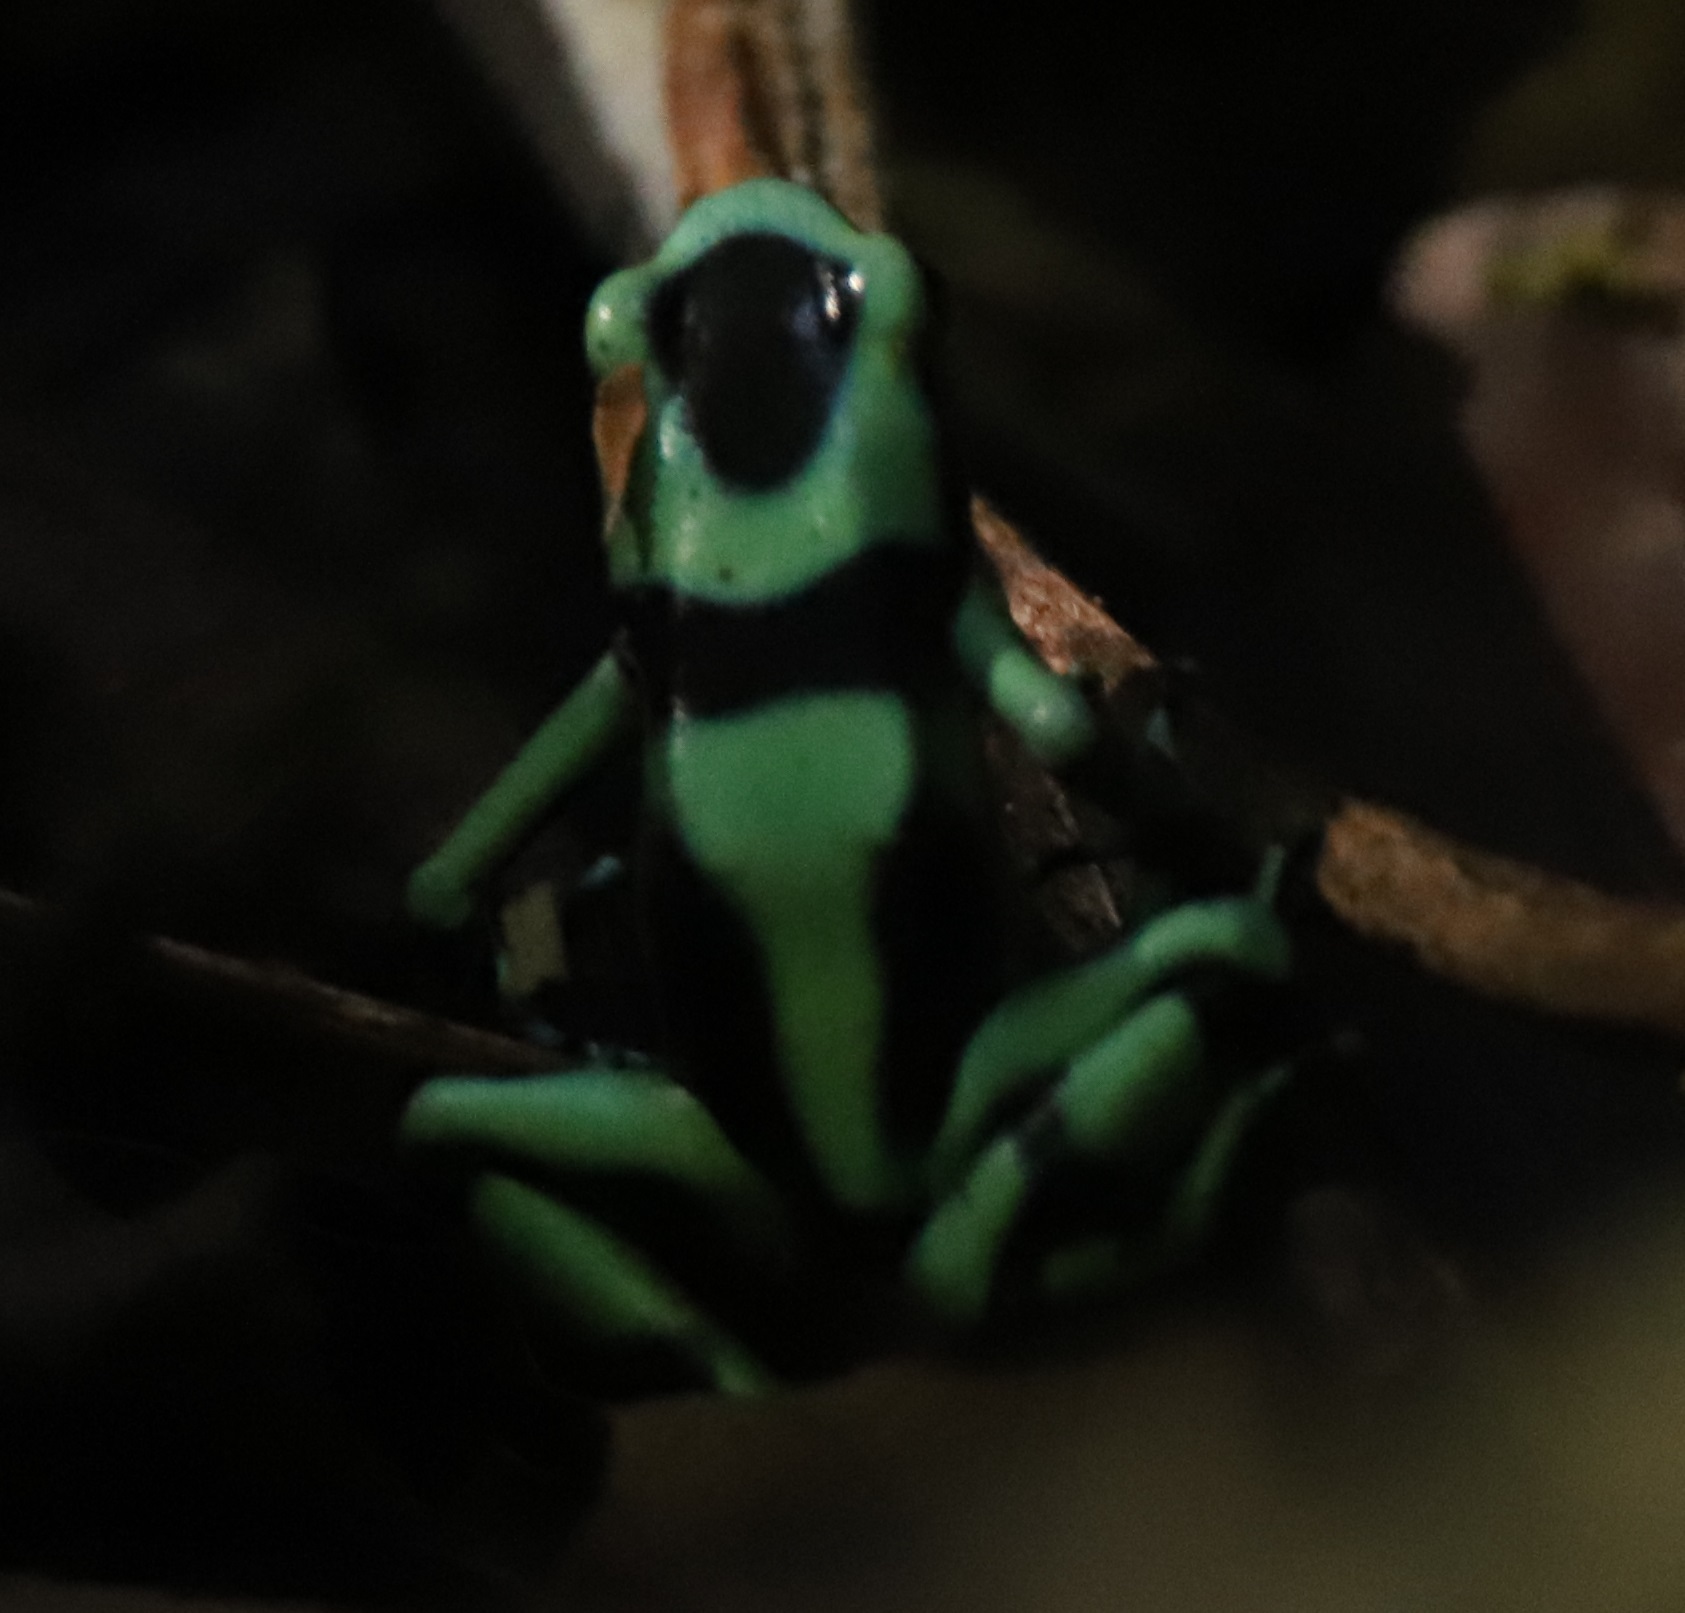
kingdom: Animalia
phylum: Chordata
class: Amphibia
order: Anura
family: Dendrobatidae
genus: Dendrobates
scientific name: Dendrobates auratus
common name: Green and black poison dart frog
